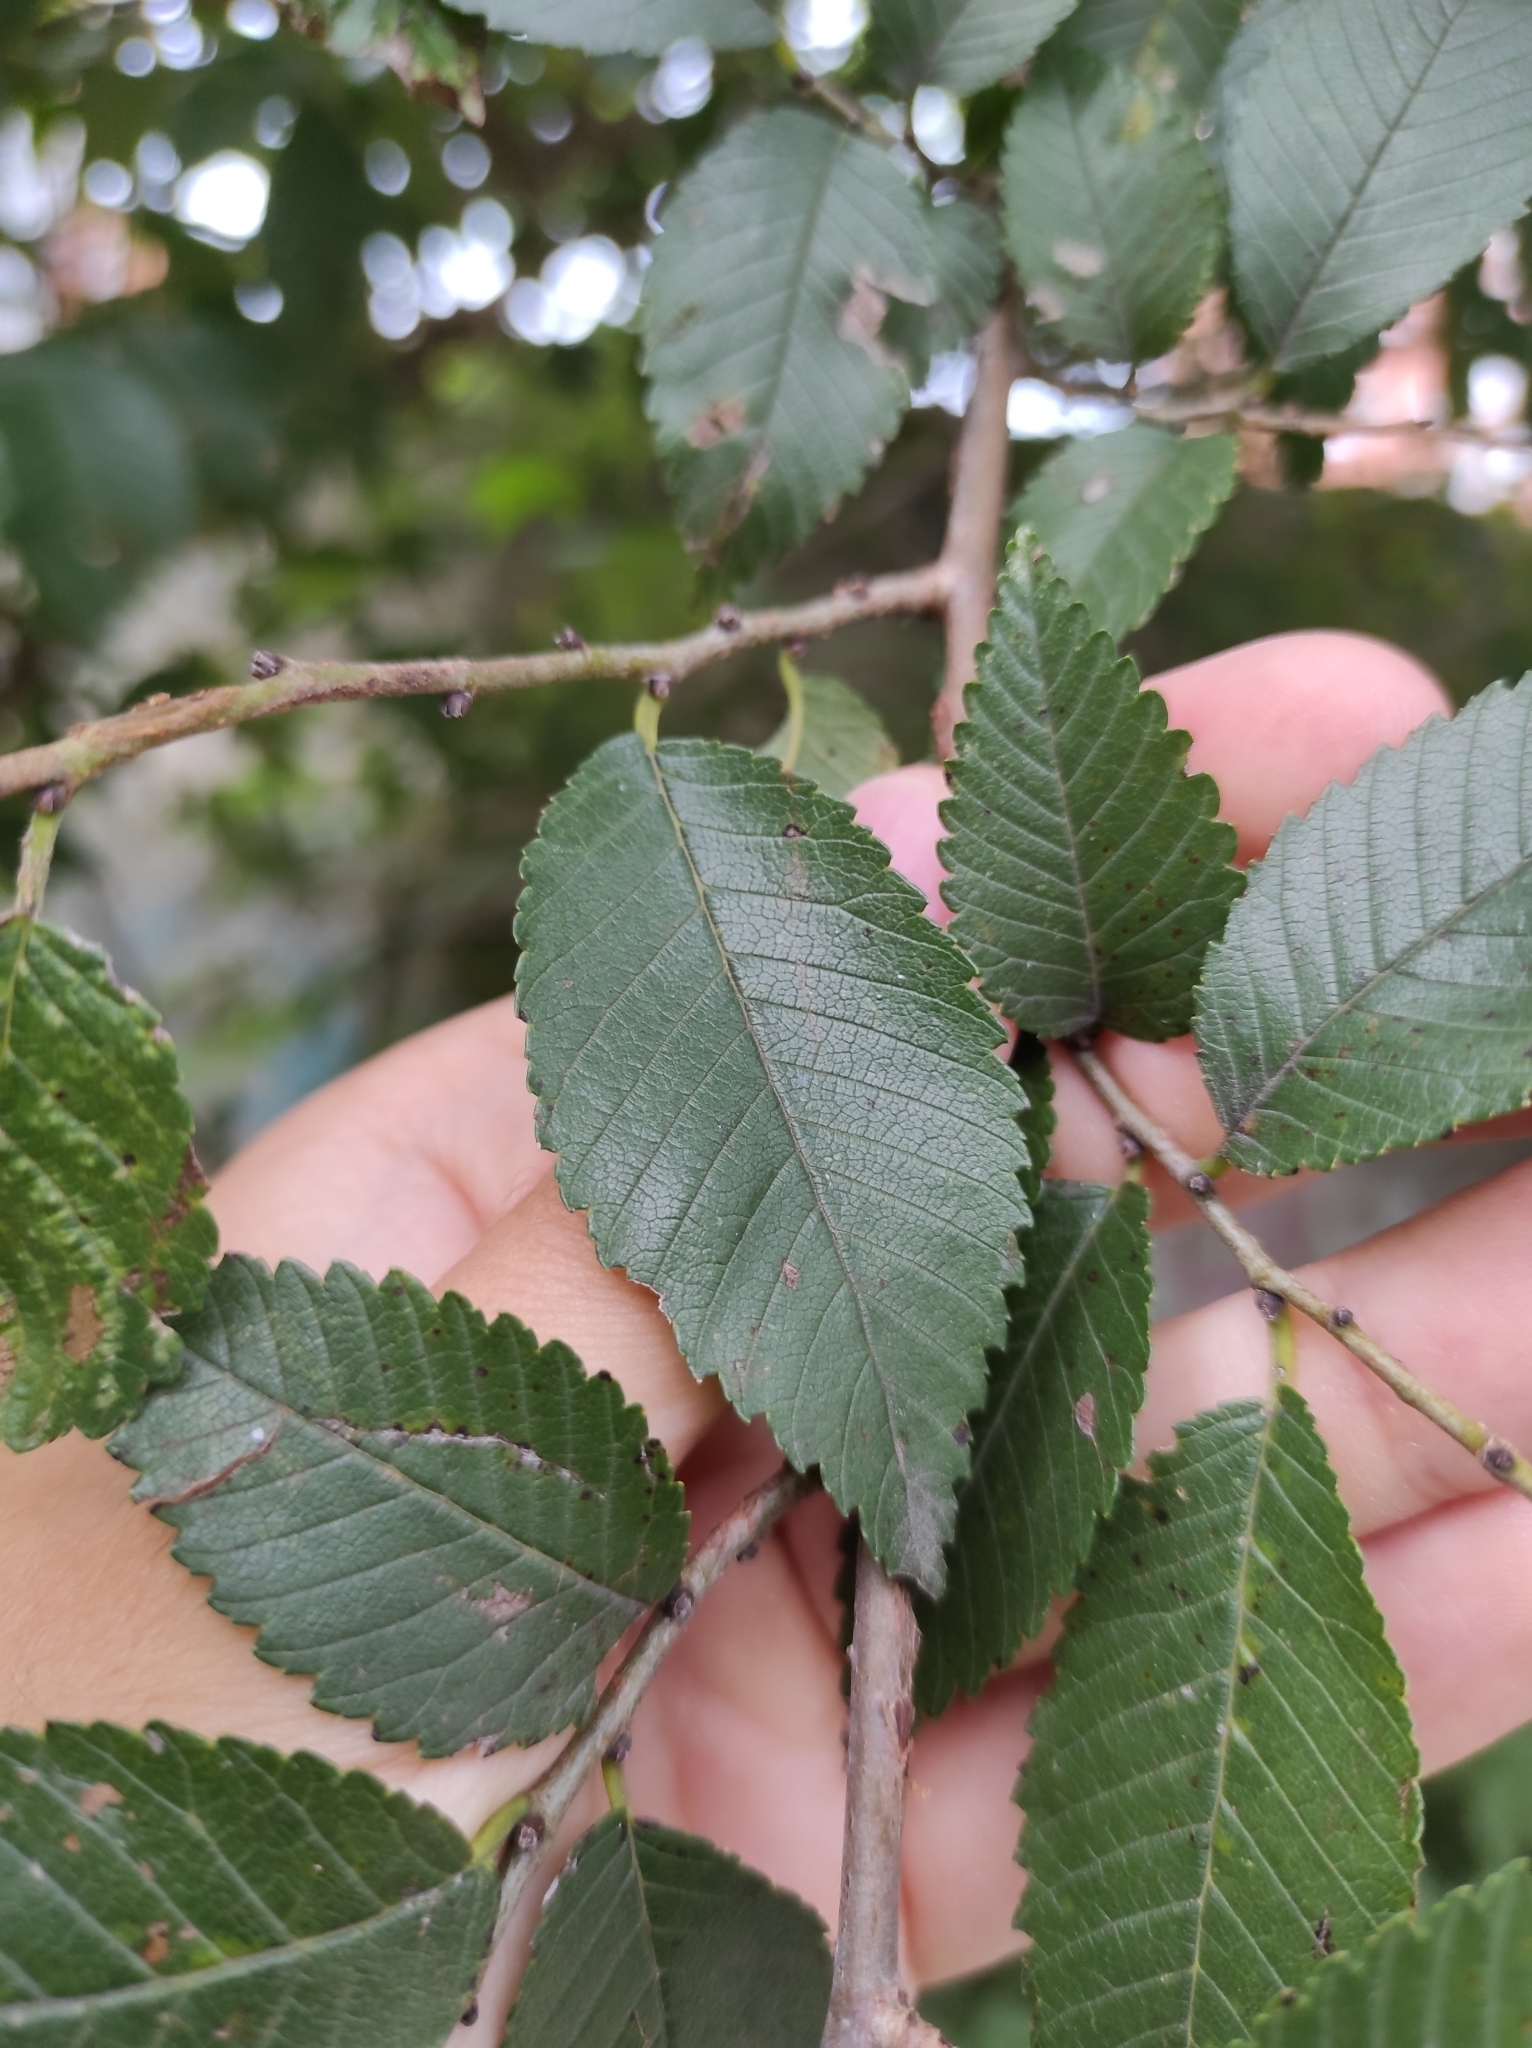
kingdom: Plantae
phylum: Tracheophyta
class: Magnoliopsida
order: Rosales
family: Ulmaceae
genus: Ulmus
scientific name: Ulmus pumila
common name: Siberian elm
